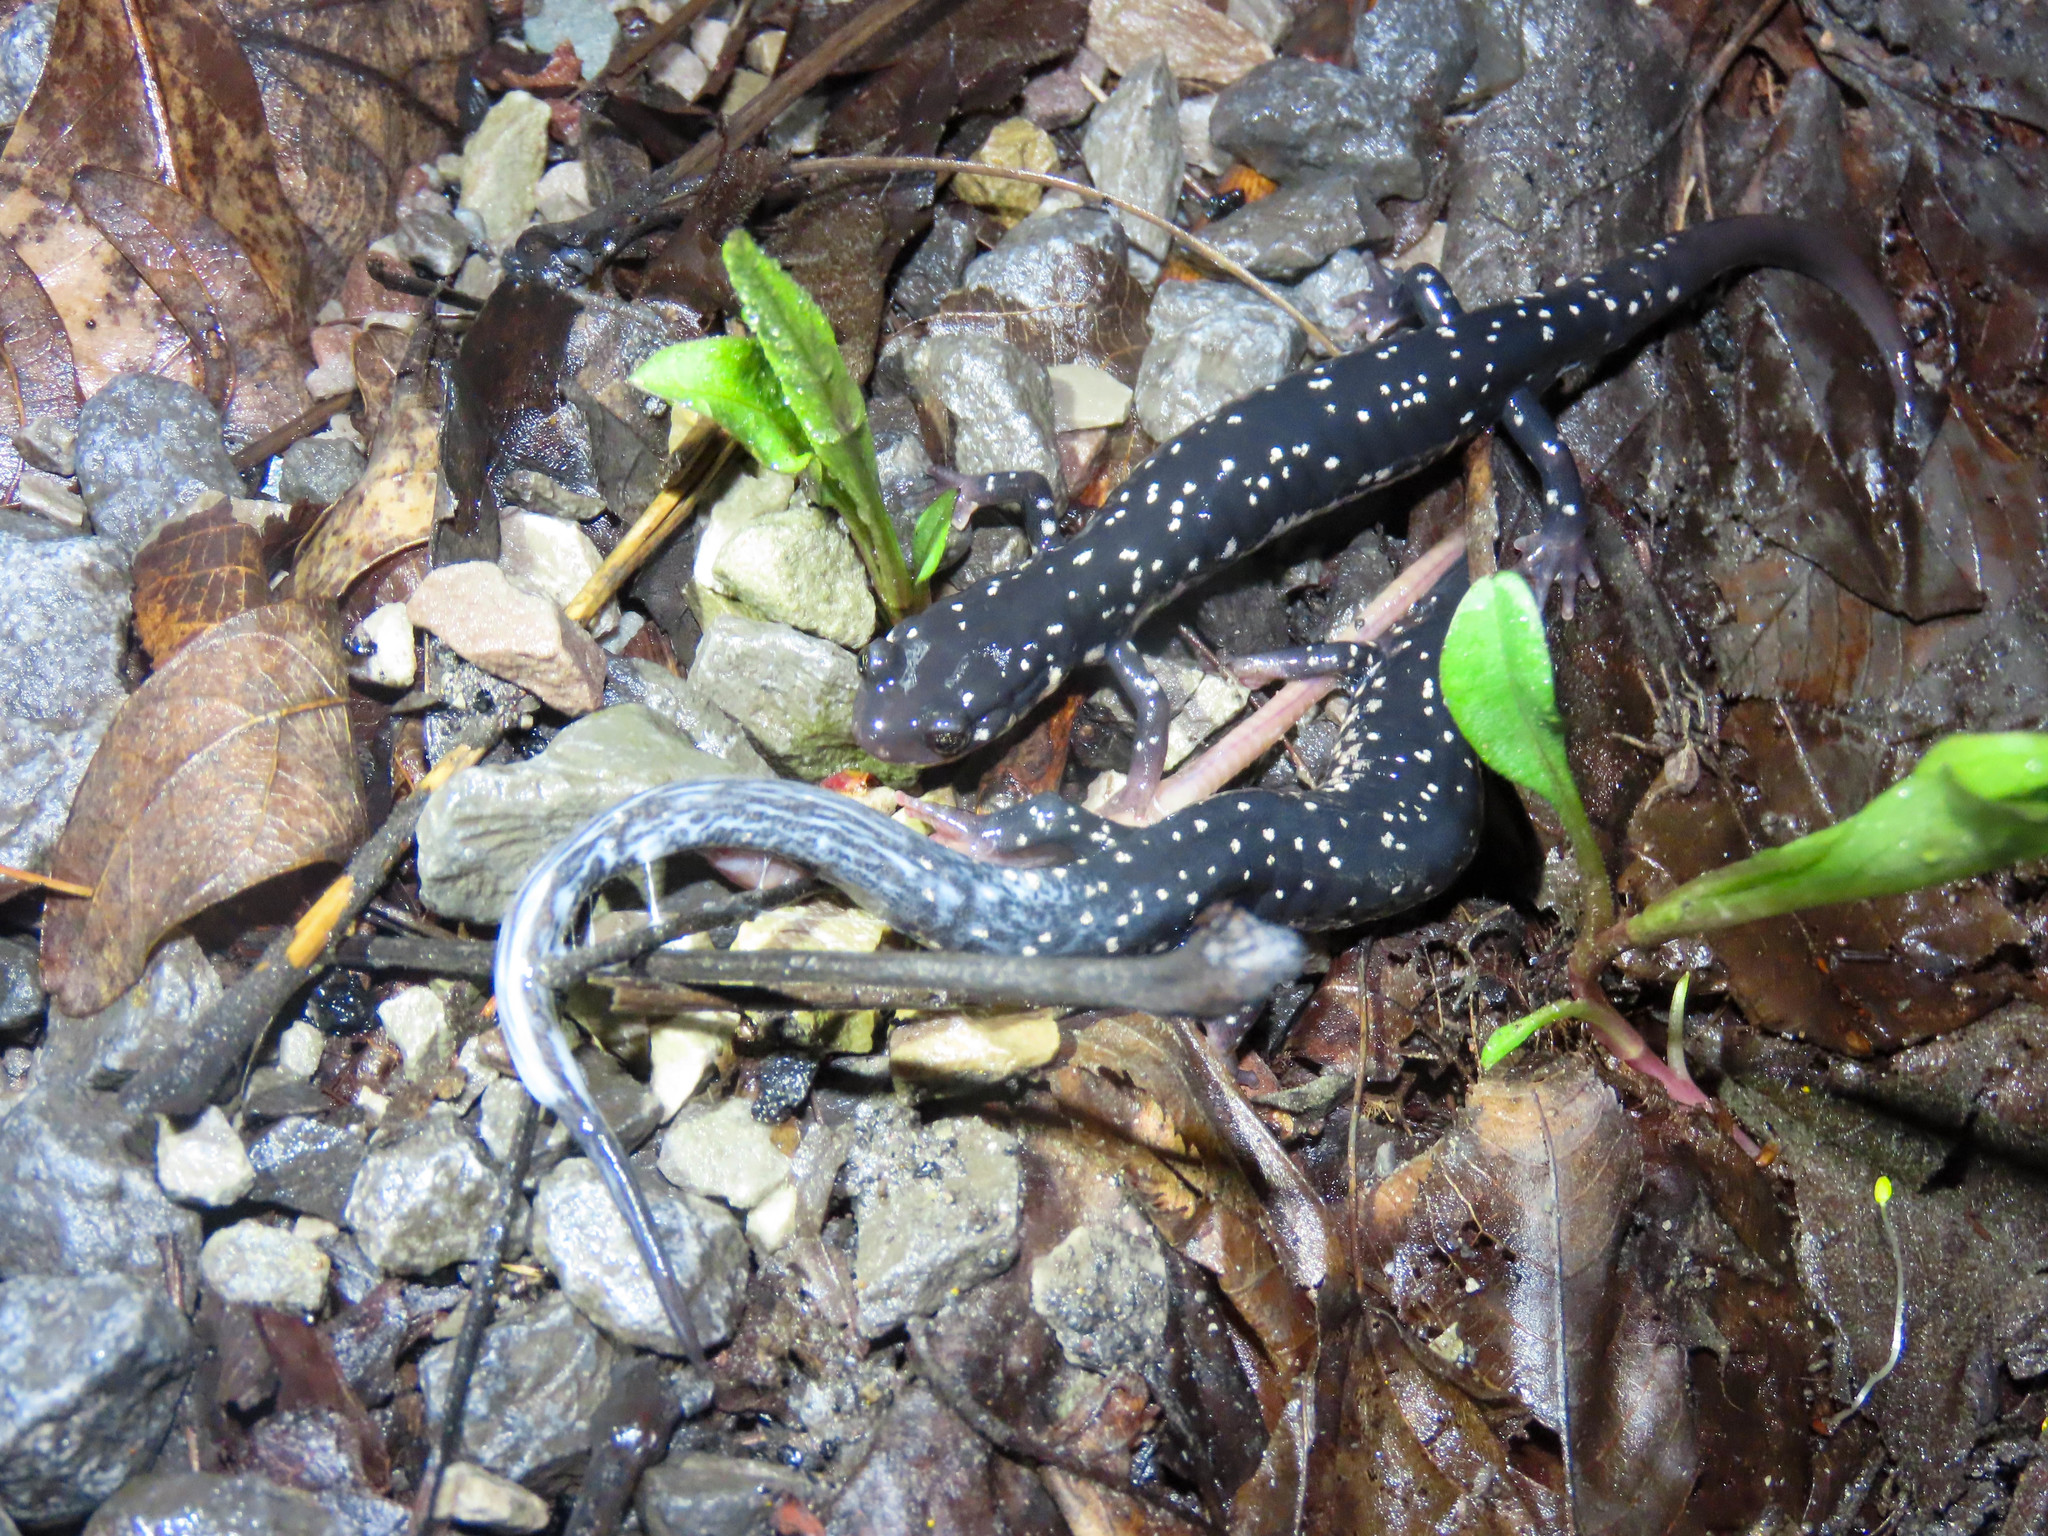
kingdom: Animalia
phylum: Chordata
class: Amphibia
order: Caudata
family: Plethodontidae
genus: Plethodon
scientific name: Plethodon glutinosus
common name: Northern slimy salamander
